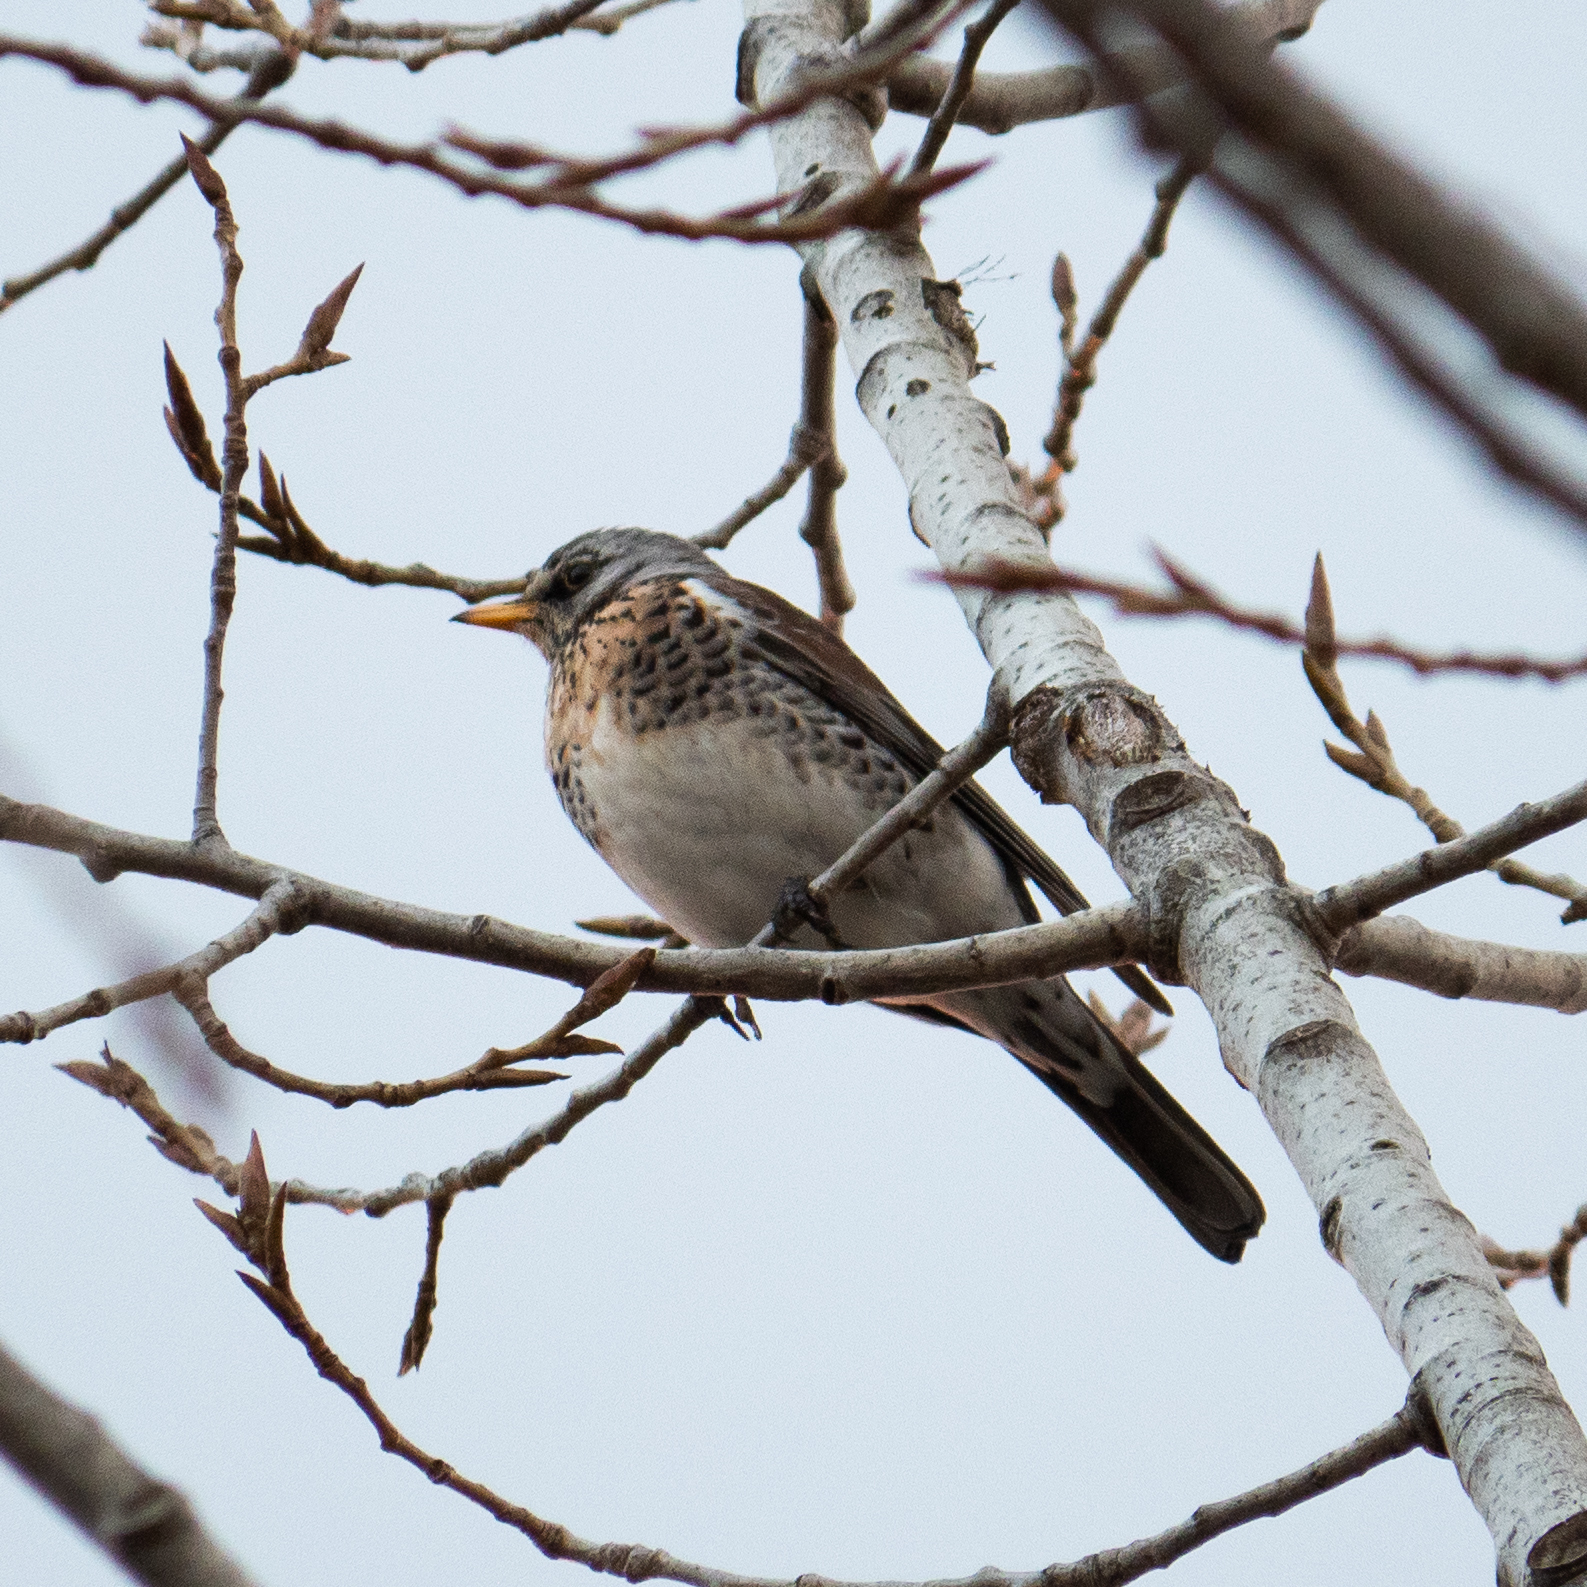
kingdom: Animalia
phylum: Chordata
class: Aves
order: Passeriformes
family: Turdidae
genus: Turdus
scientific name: Turdus pilaris
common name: Fieldfare
